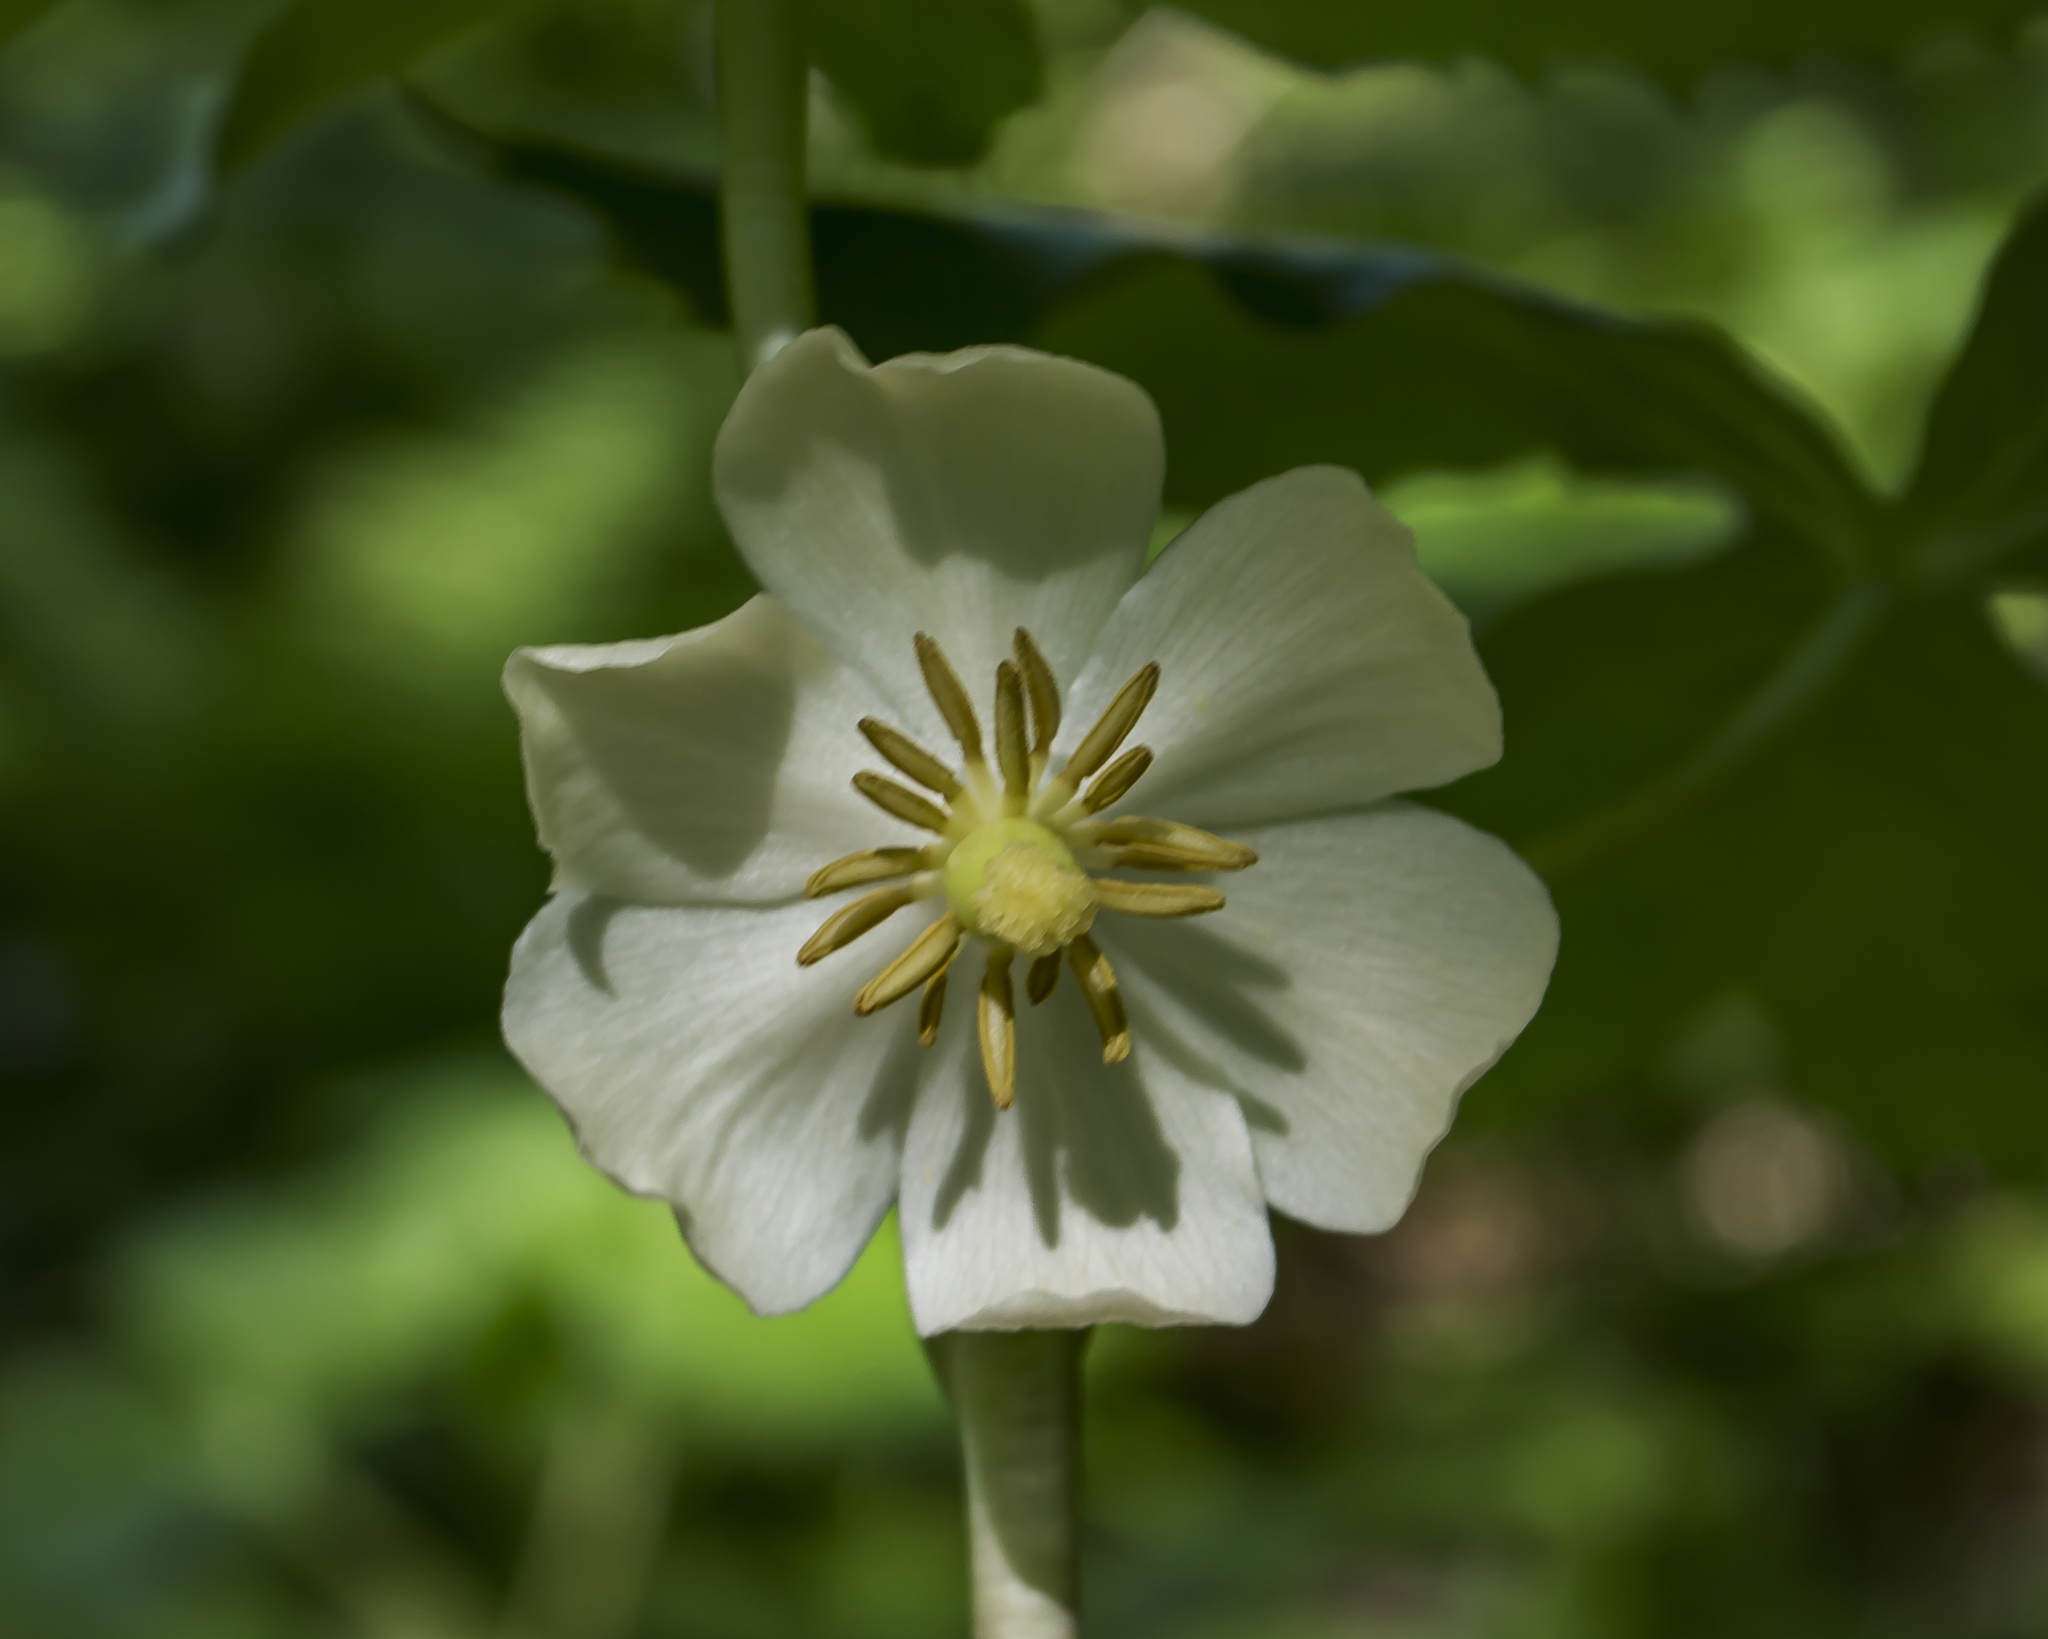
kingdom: Plantae
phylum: Tracheophyta
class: Magnoliopsida
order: Ranunculales
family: Berberidaceae
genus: Podophyllum
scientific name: Podophyllum peltatum
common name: Wild mandrake
